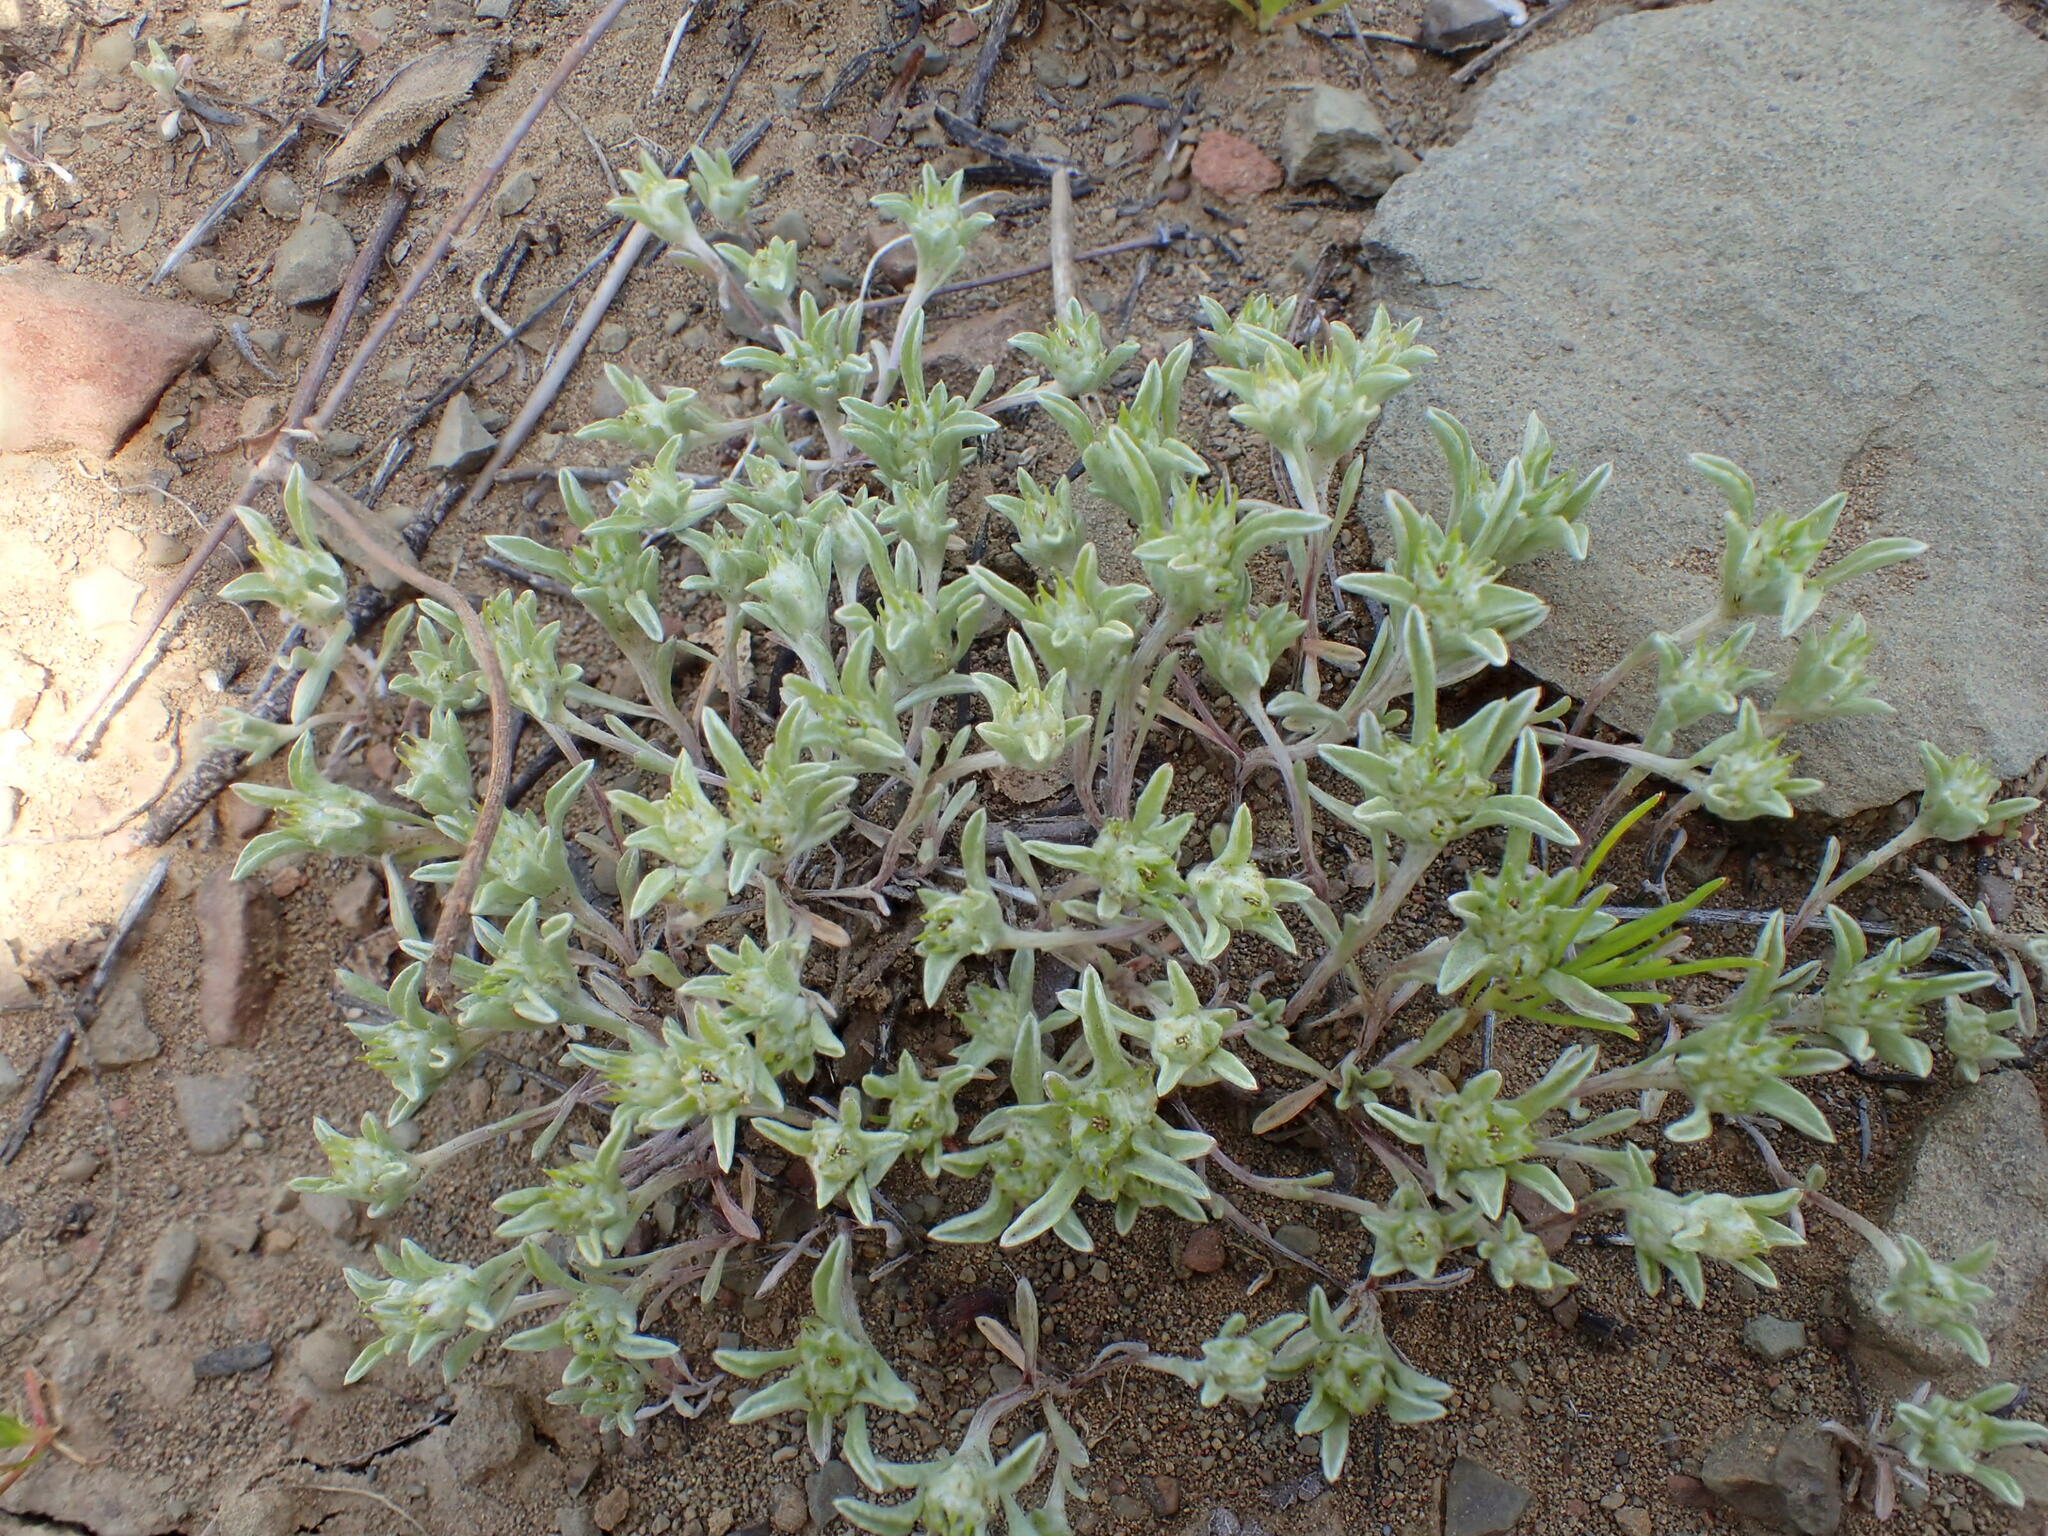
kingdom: Plantae
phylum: Tracheophyta
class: Magnoliopsida
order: Asterales
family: Asteraceae
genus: Ancistrocarphus
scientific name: Ancistrocarphus filagineus
